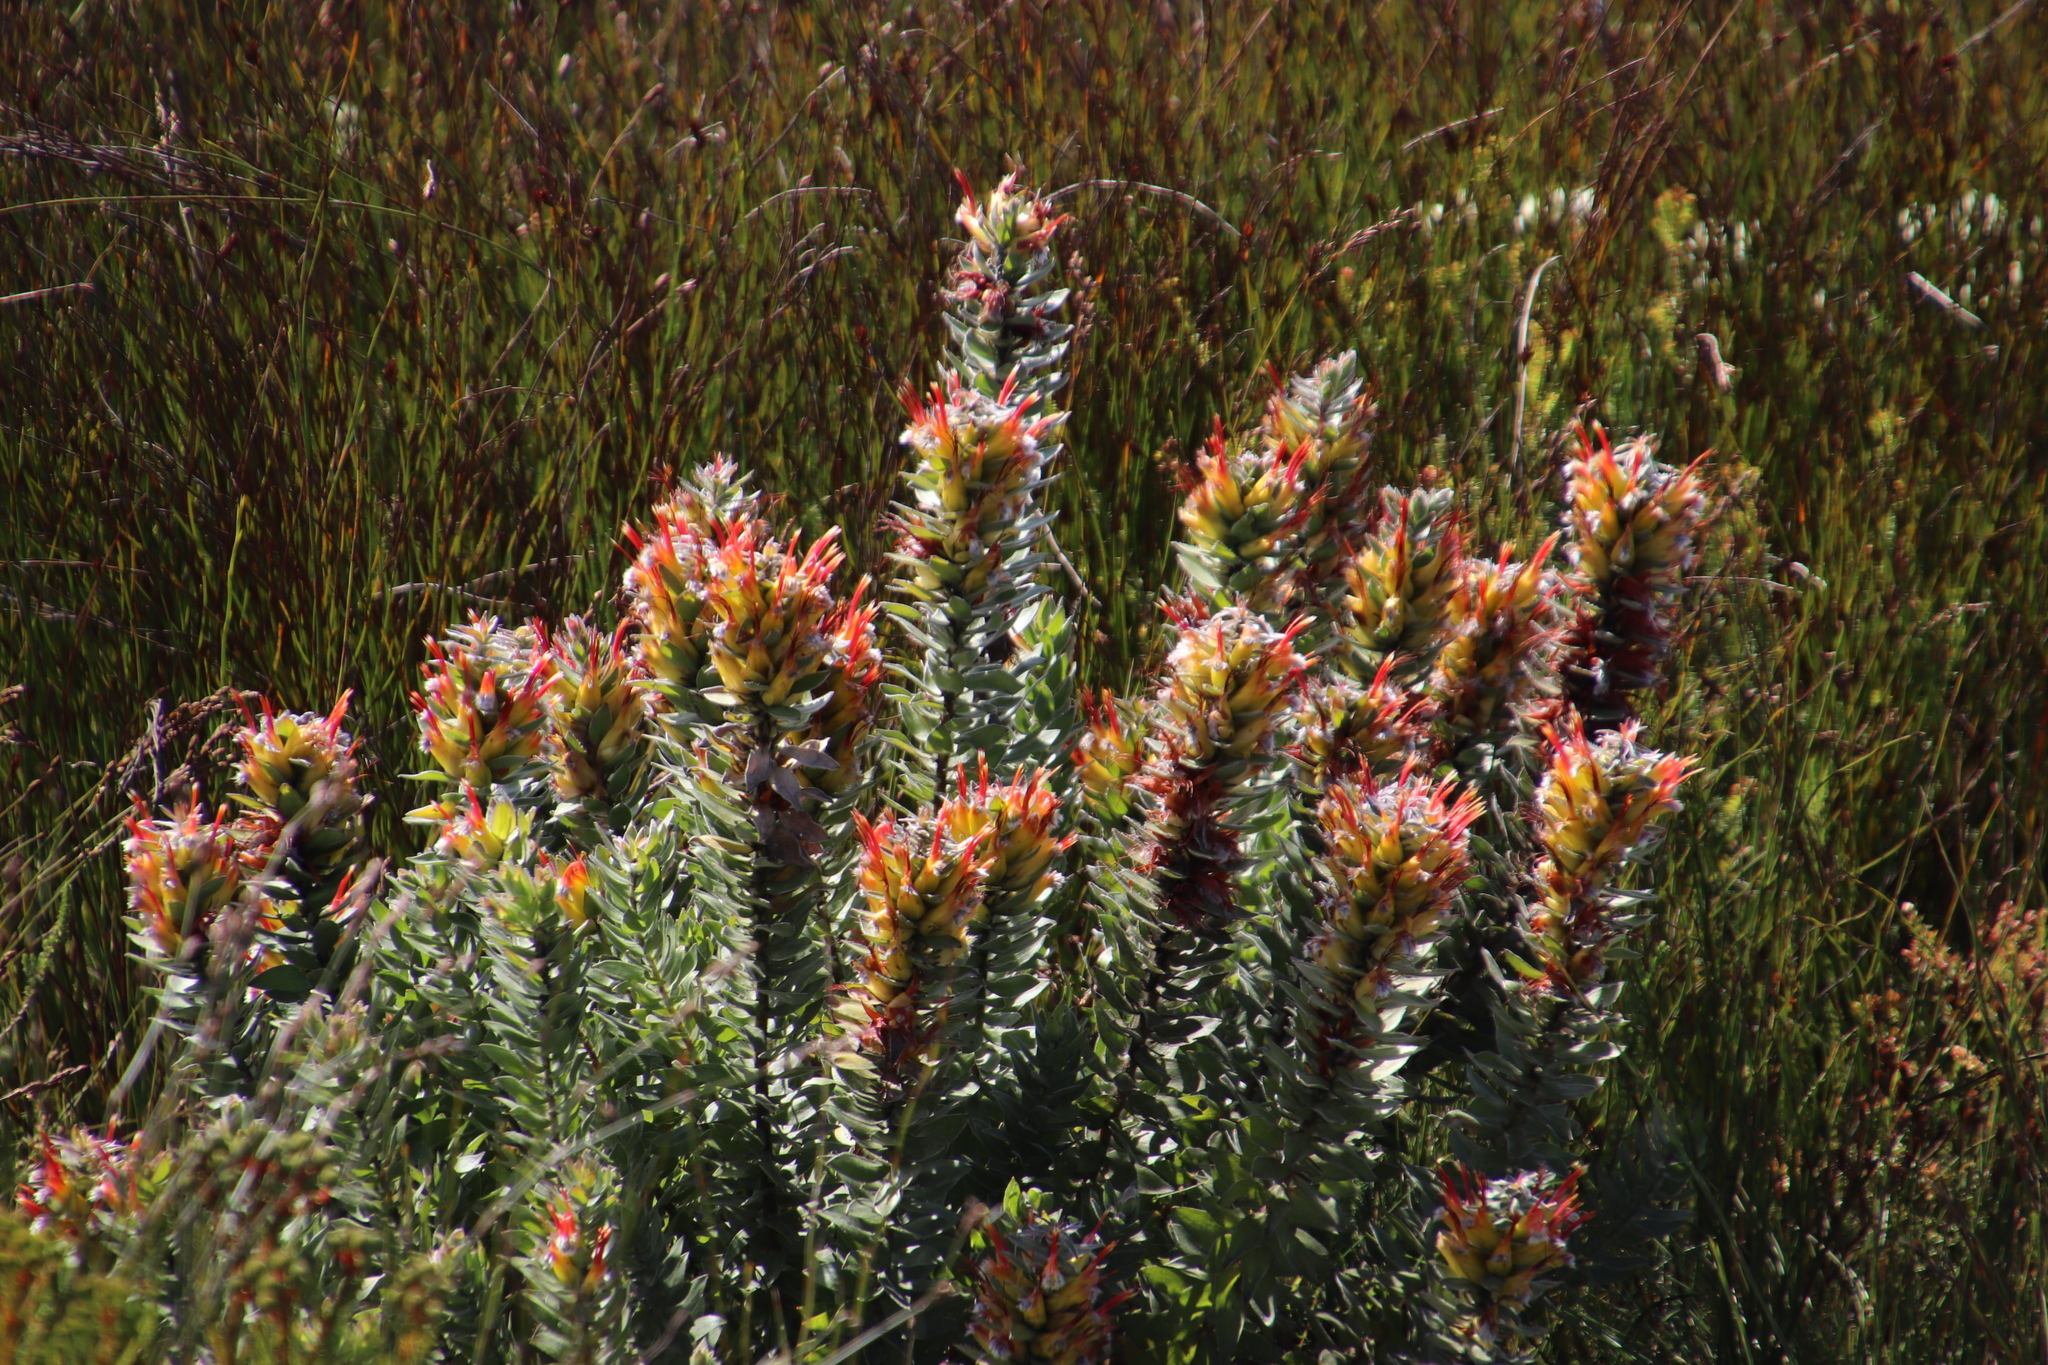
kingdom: Plantae
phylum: Tracheophyta
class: Magnoliopsida
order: Proteales
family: Proteaceae
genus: Mimetes
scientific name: Mimetes hirtus
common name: Marsh pagoda
